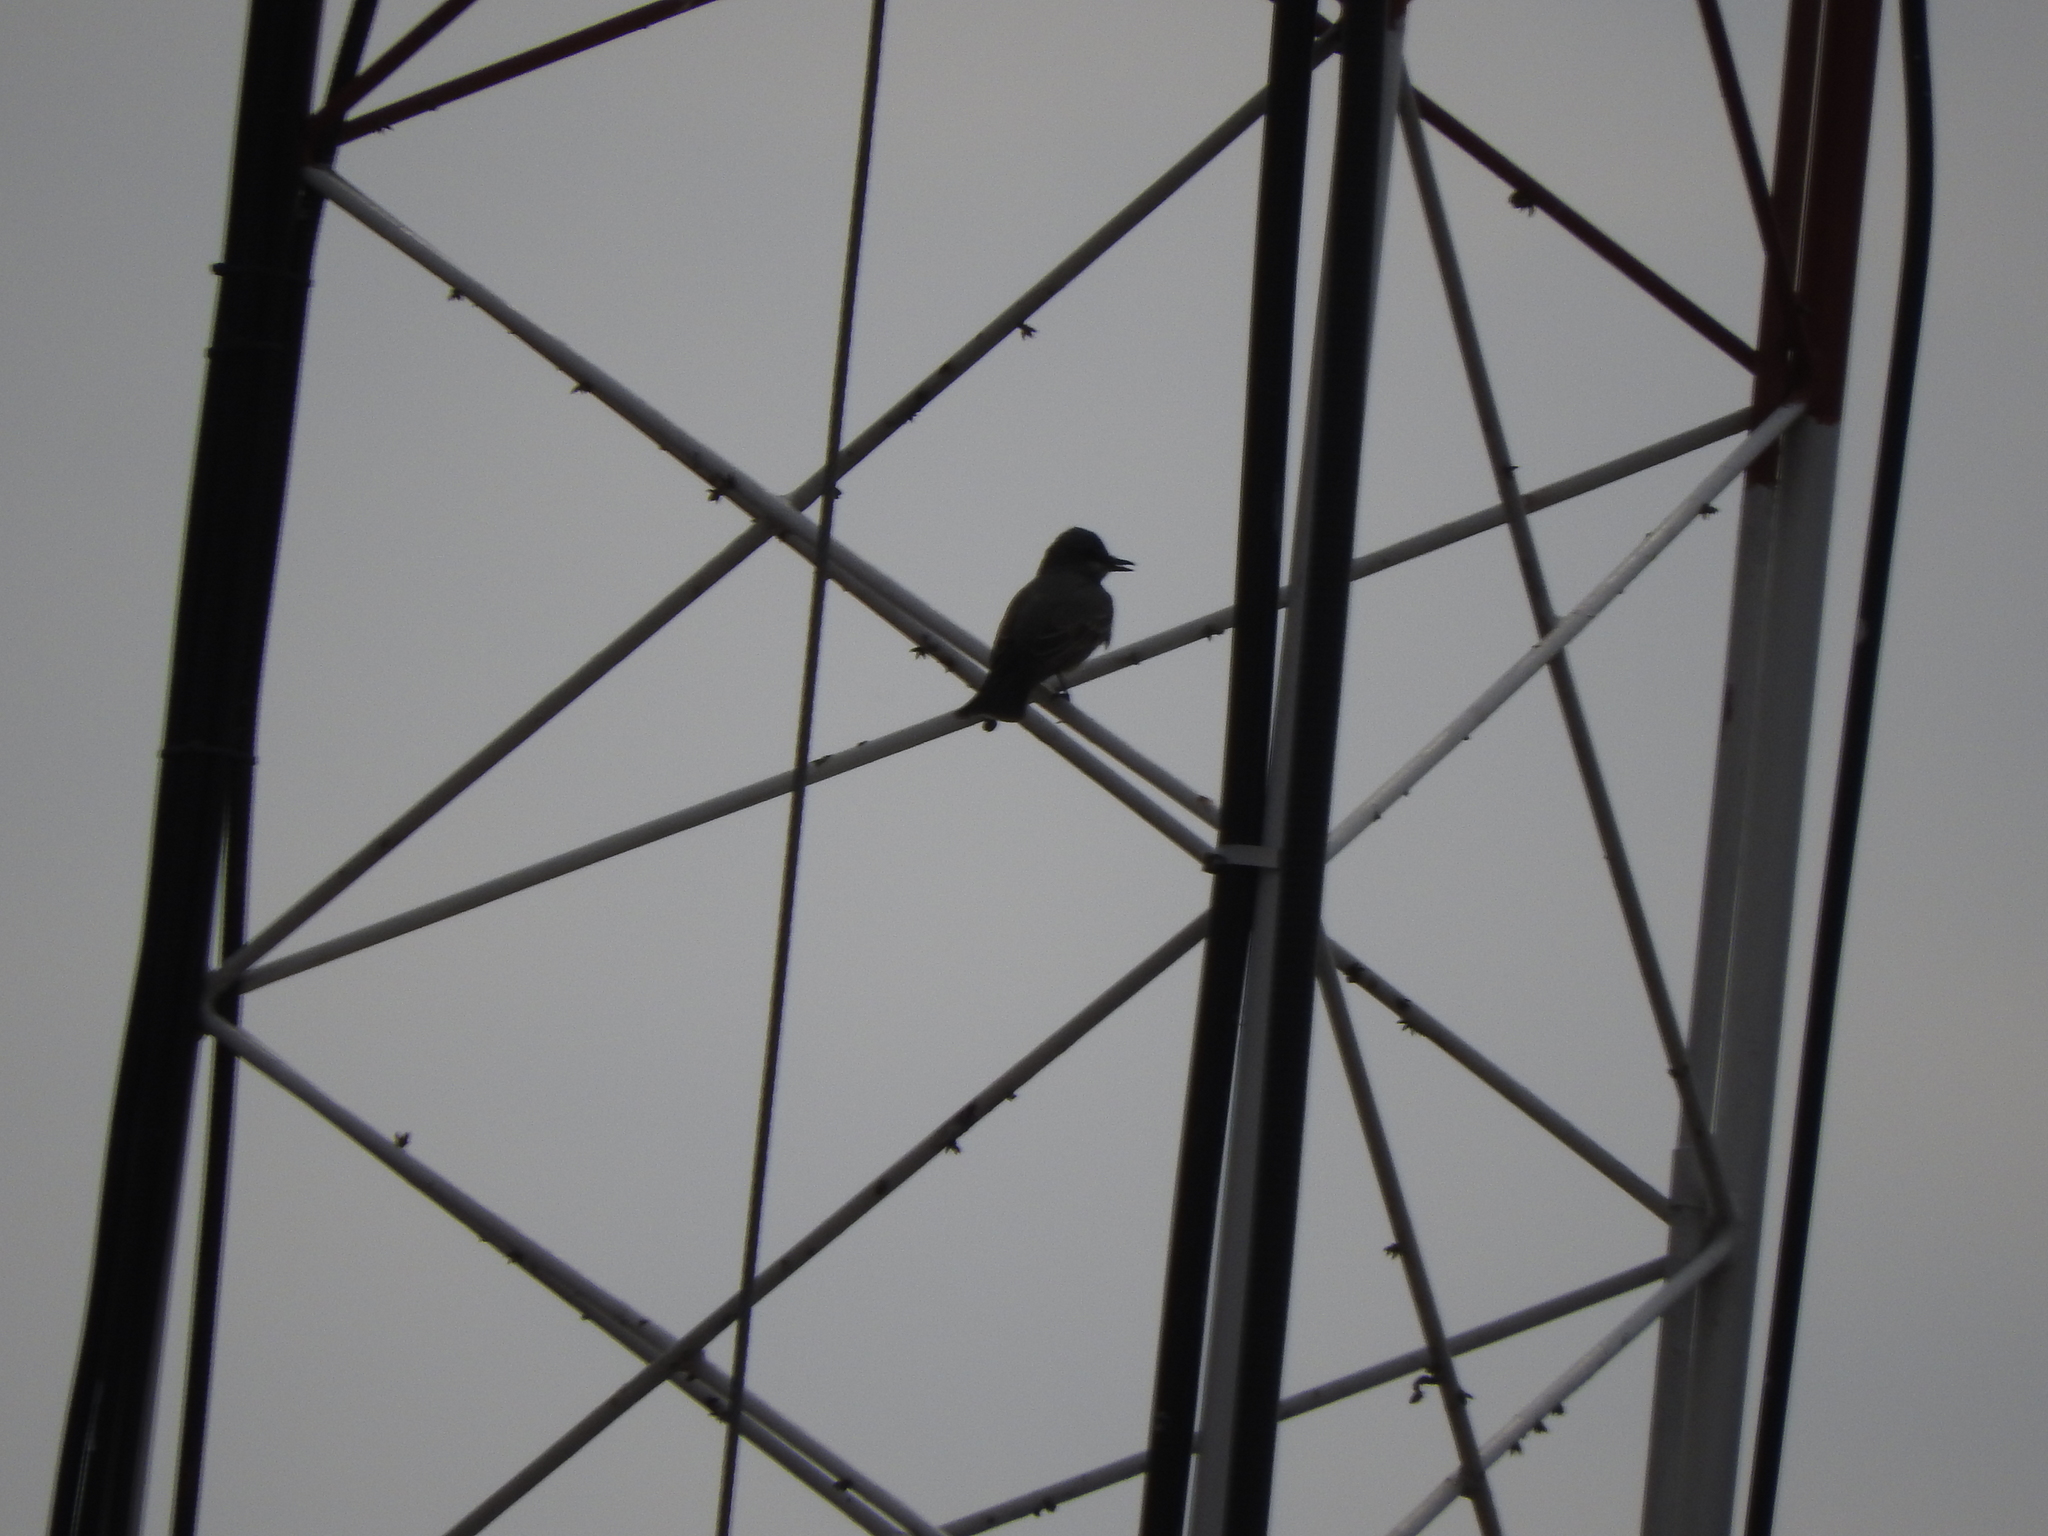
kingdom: Animalia
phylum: Chordata
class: Aves
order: Passeriformes
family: Tyrannidae
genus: Tyrannus
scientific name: Tyrannus vociferans
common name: Cassin's kingbird
